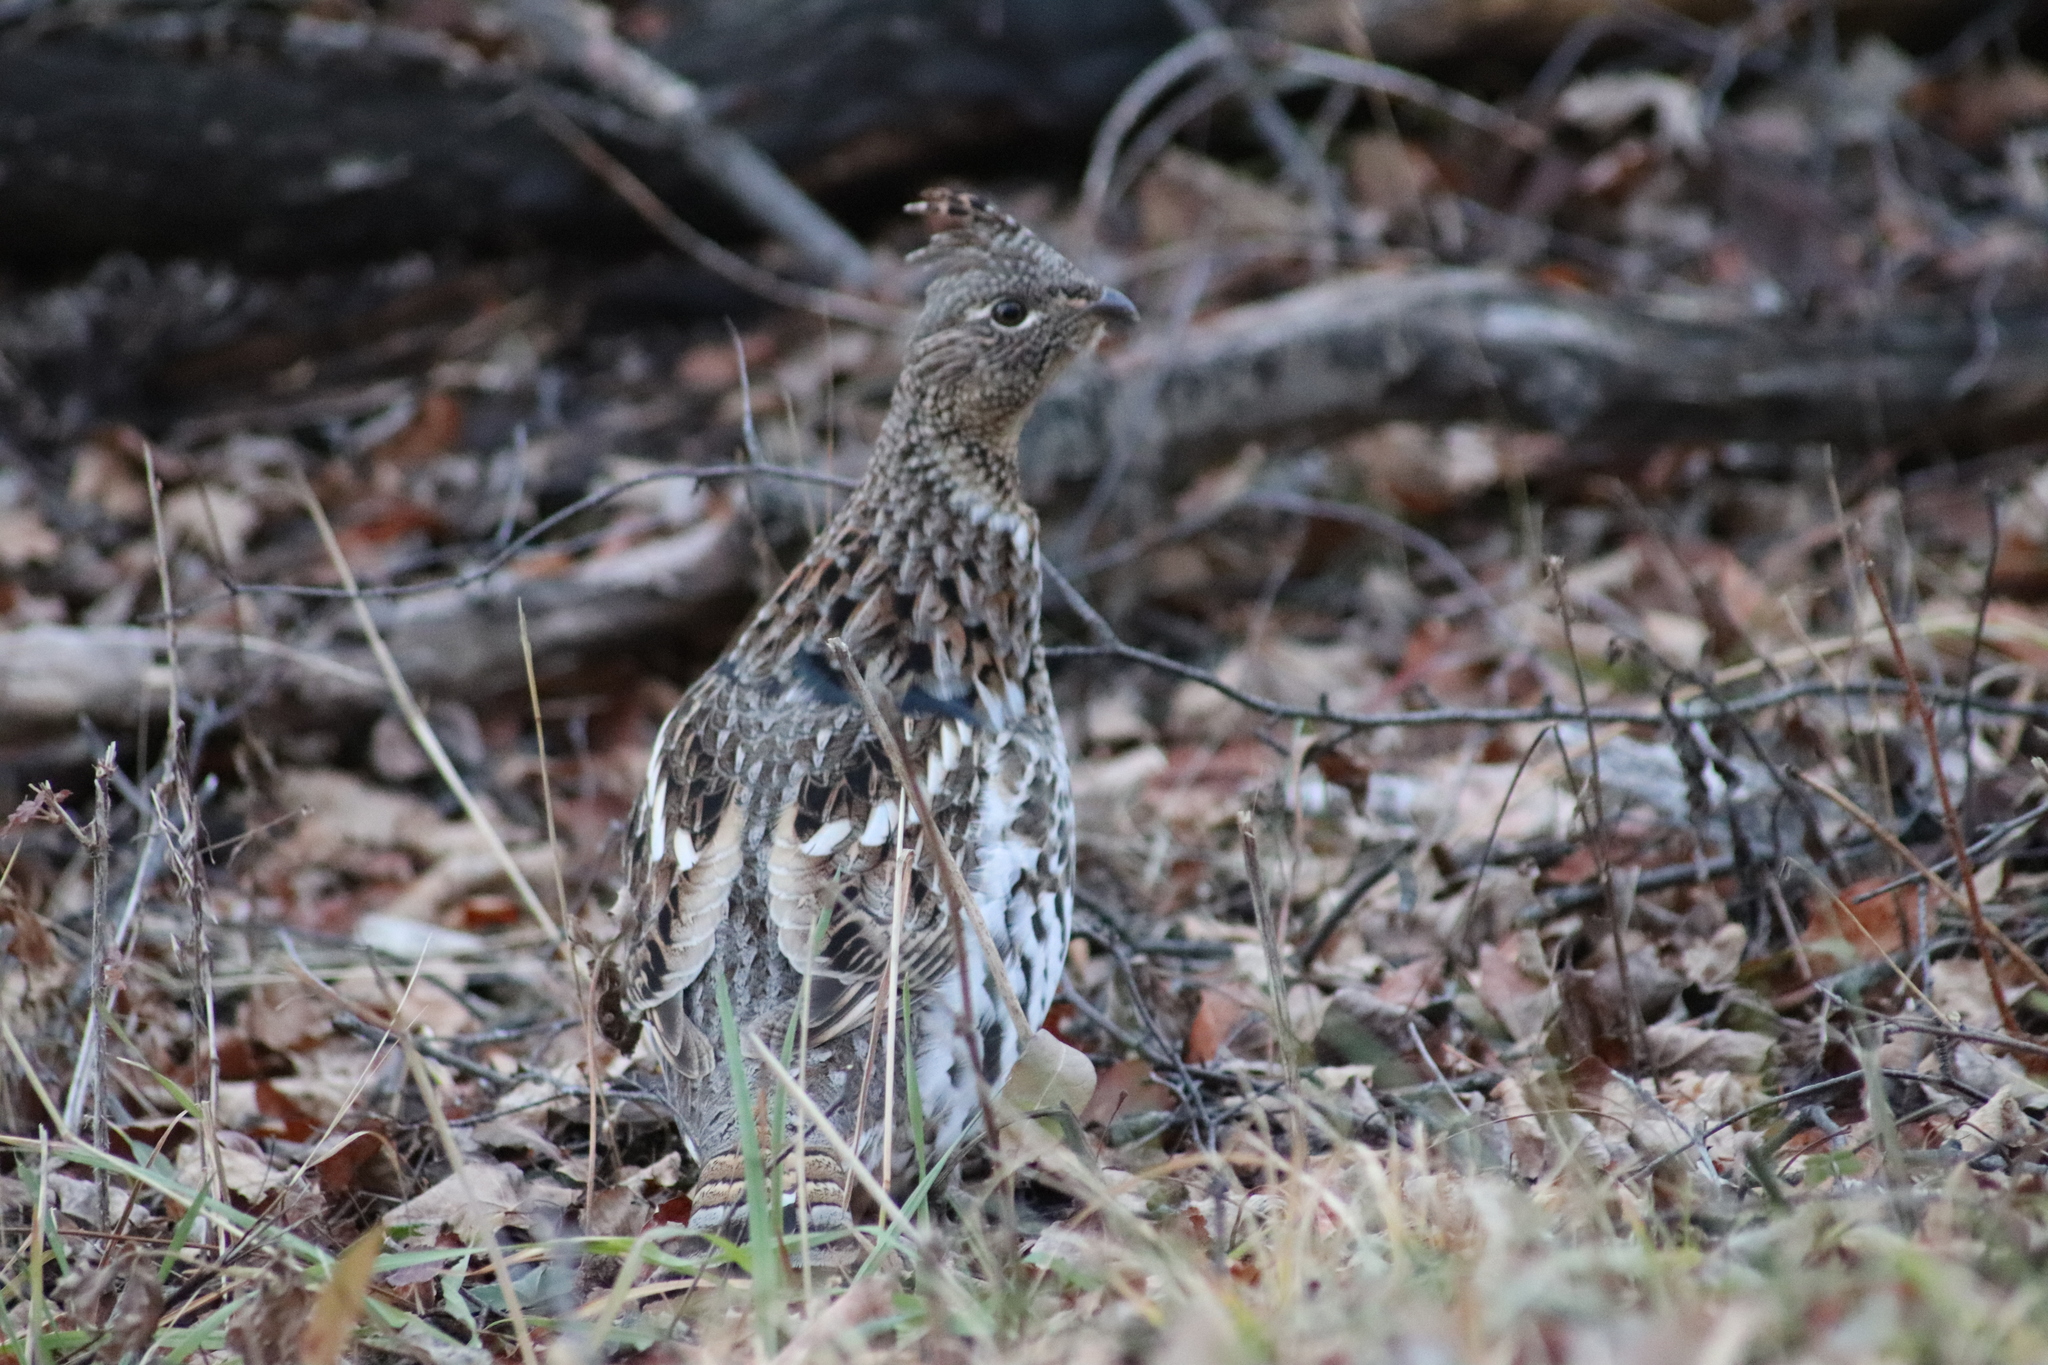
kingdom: Animalia
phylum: Chordata
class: Aves
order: Galliformes
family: Phasianidae
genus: Bonasa
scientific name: Bonasa umbellus
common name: Ruffed grouse
